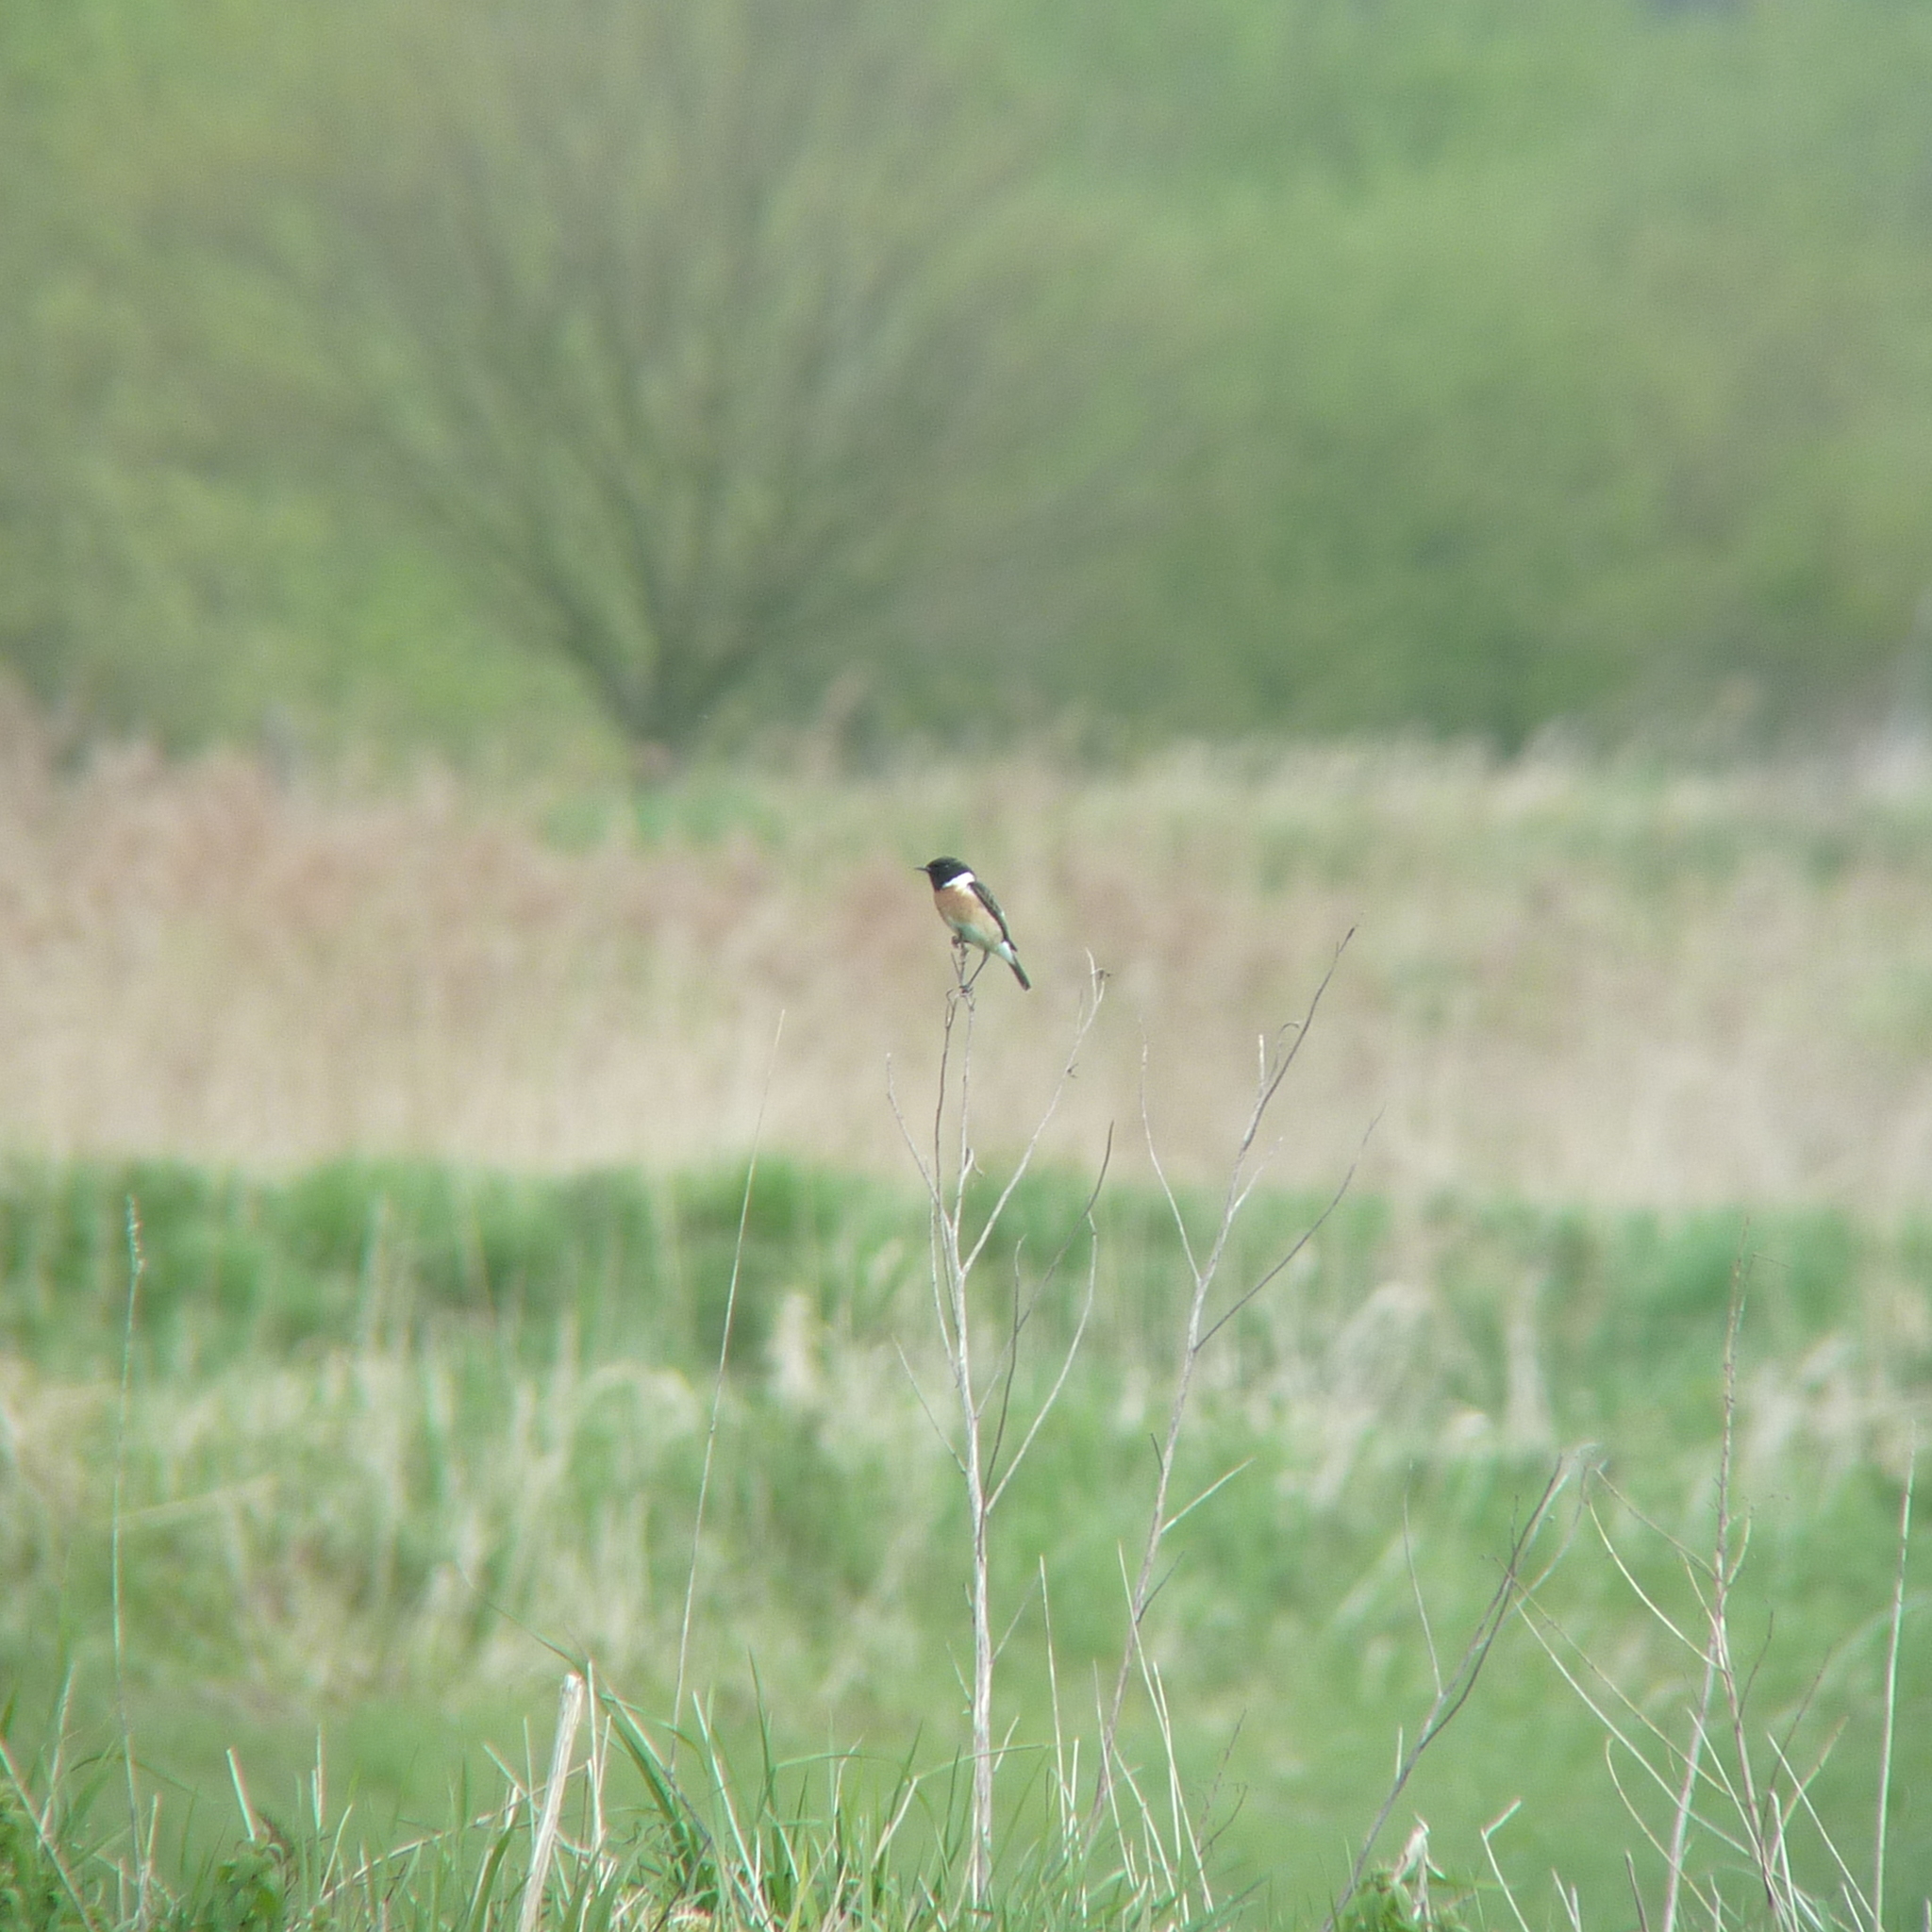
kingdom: Animalia
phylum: Chordata
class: Aves
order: Passeriformes
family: Muscicapidae
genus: Saxicola
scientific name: Saxicola rubicola
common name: European stonechat
